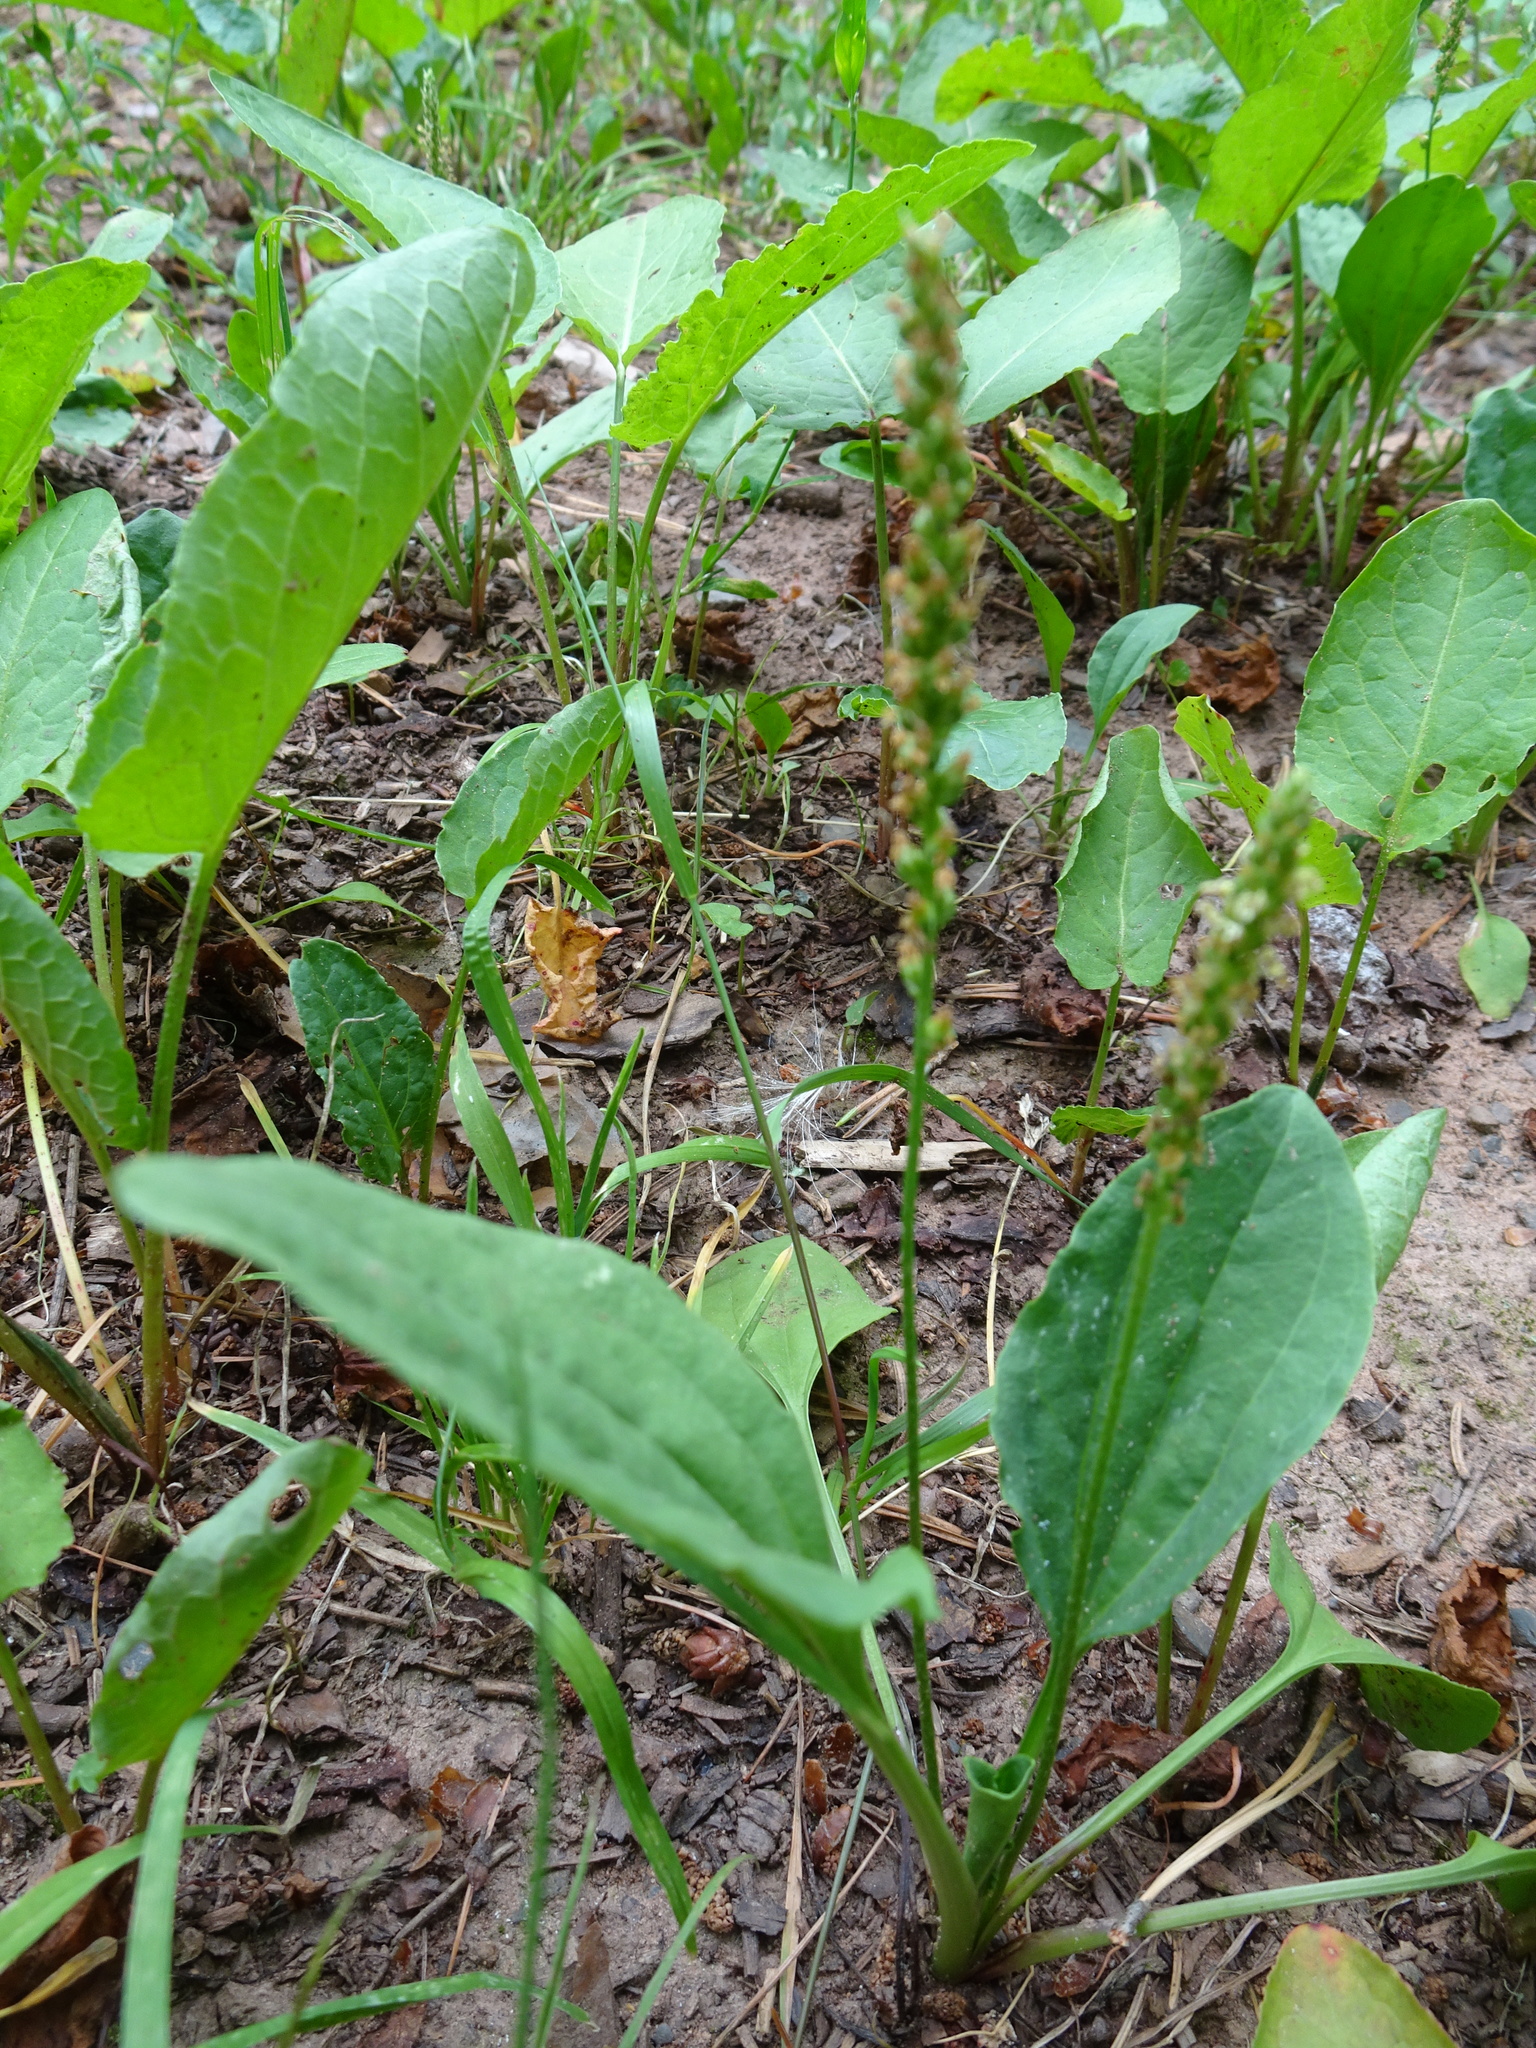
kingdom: Plantae
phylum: Tracheophyta
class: Magnoliopsida
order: Lamiales
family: Plantaginaceae
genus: Plantago
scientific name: Plantago major
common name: Common plantain
